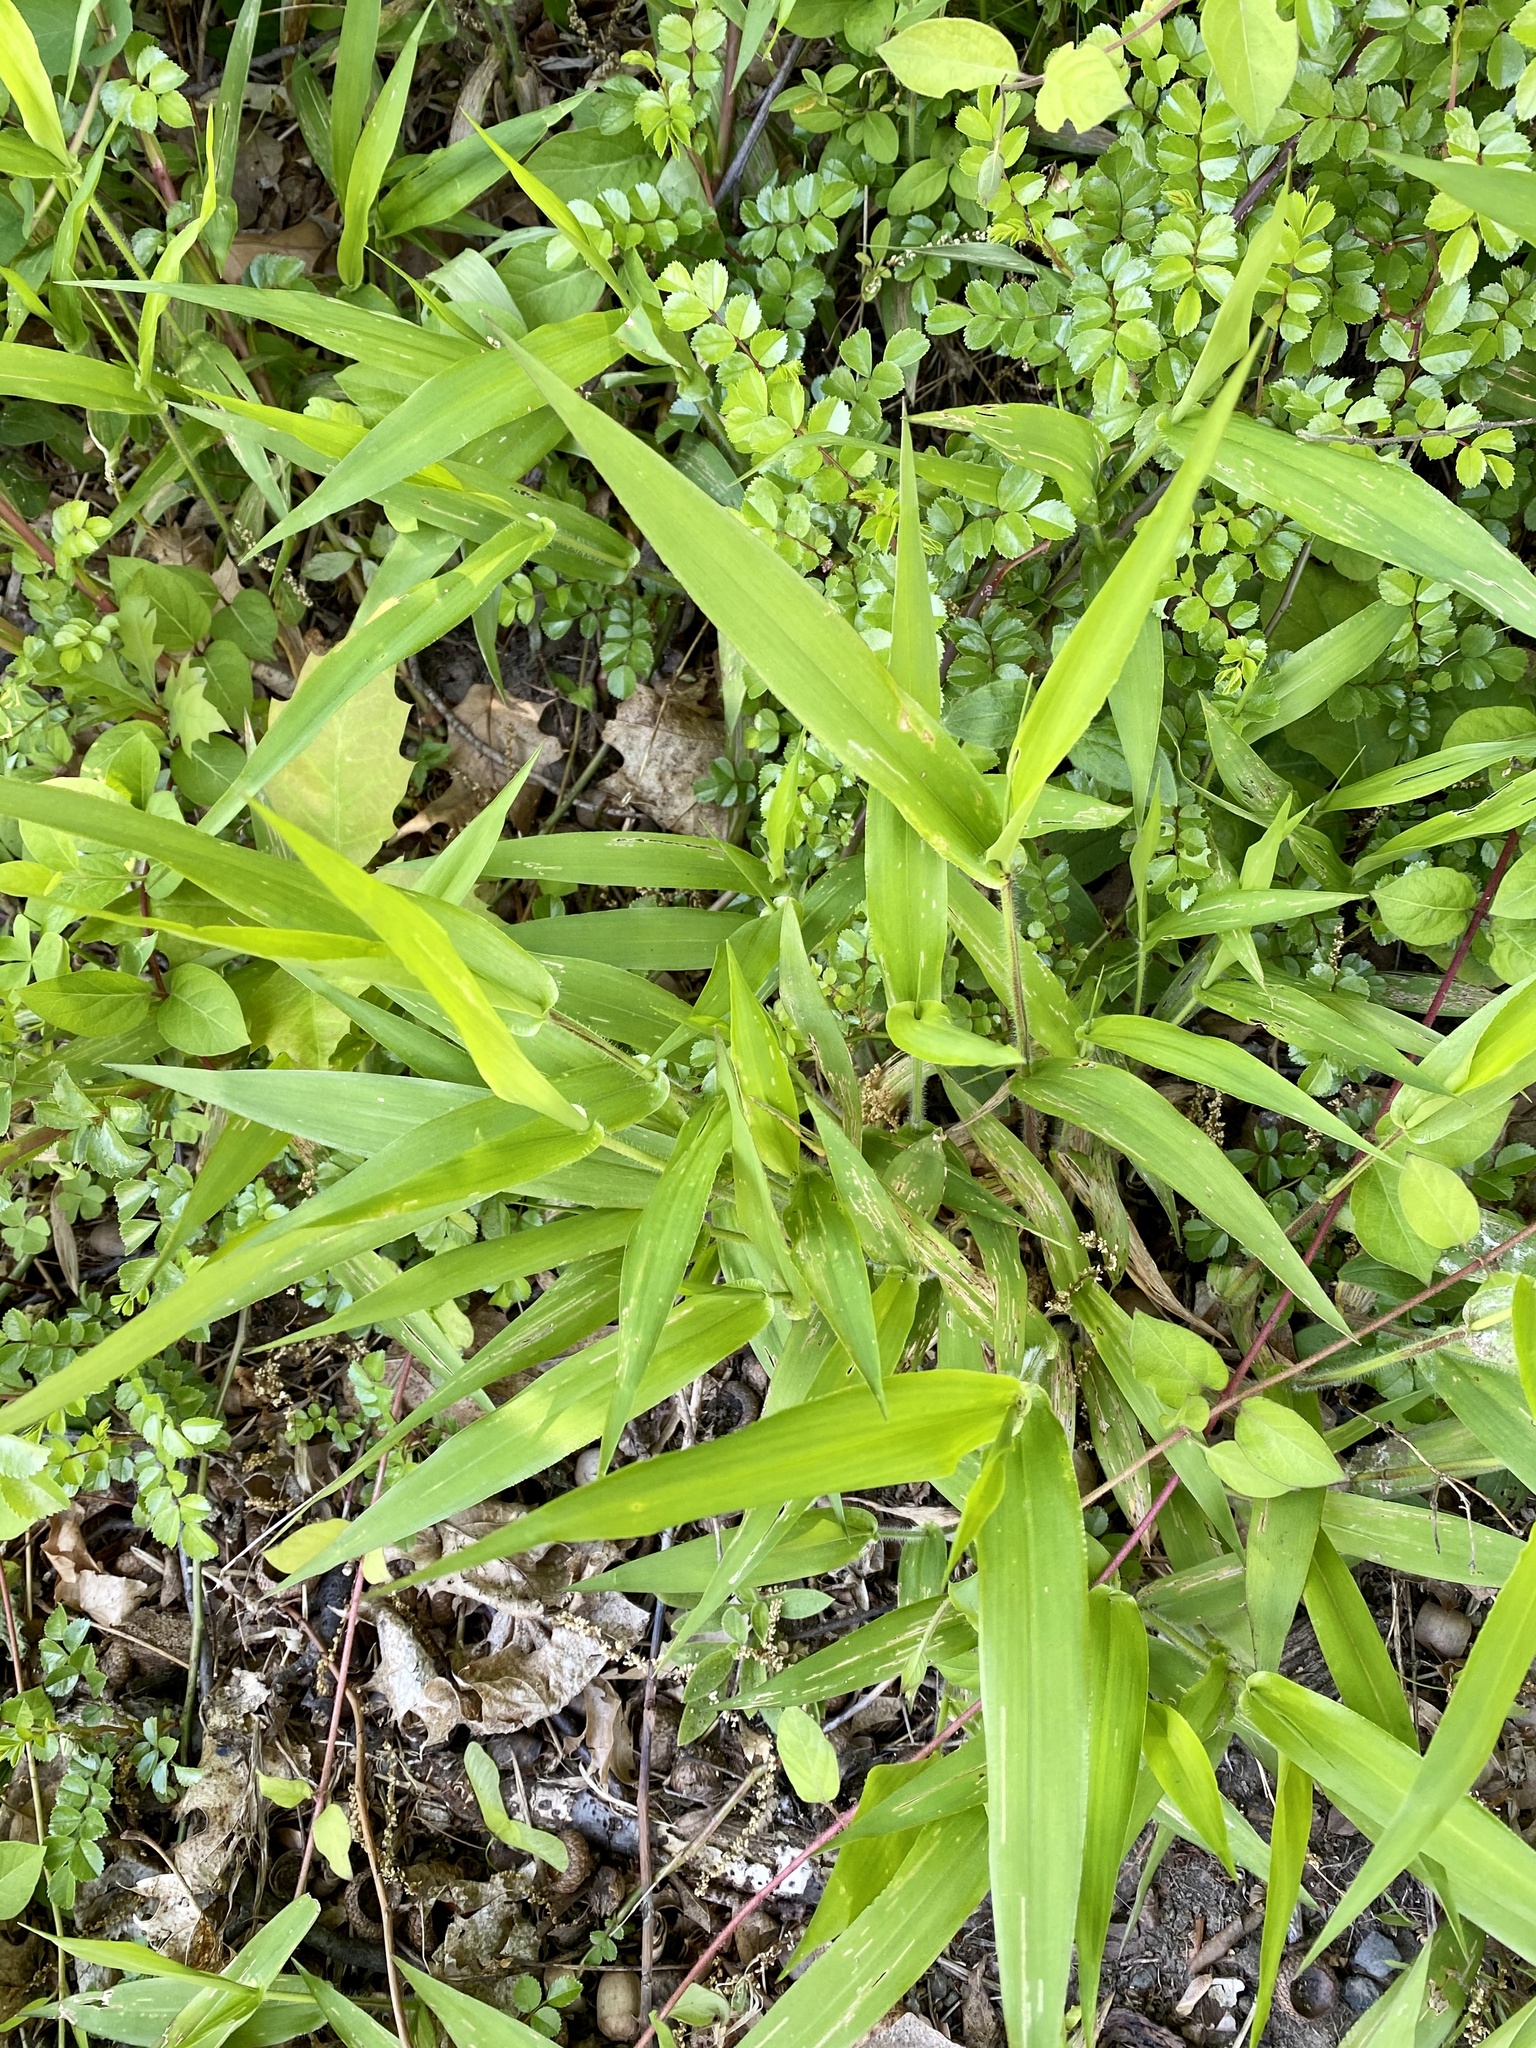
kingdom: Plantae
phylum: Tracheophyta
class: Liliopsida
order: Poales
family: Poaceae
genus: Dichanthelium
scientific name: Dichanthelium clandestinum
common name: Deer-tongue grass
